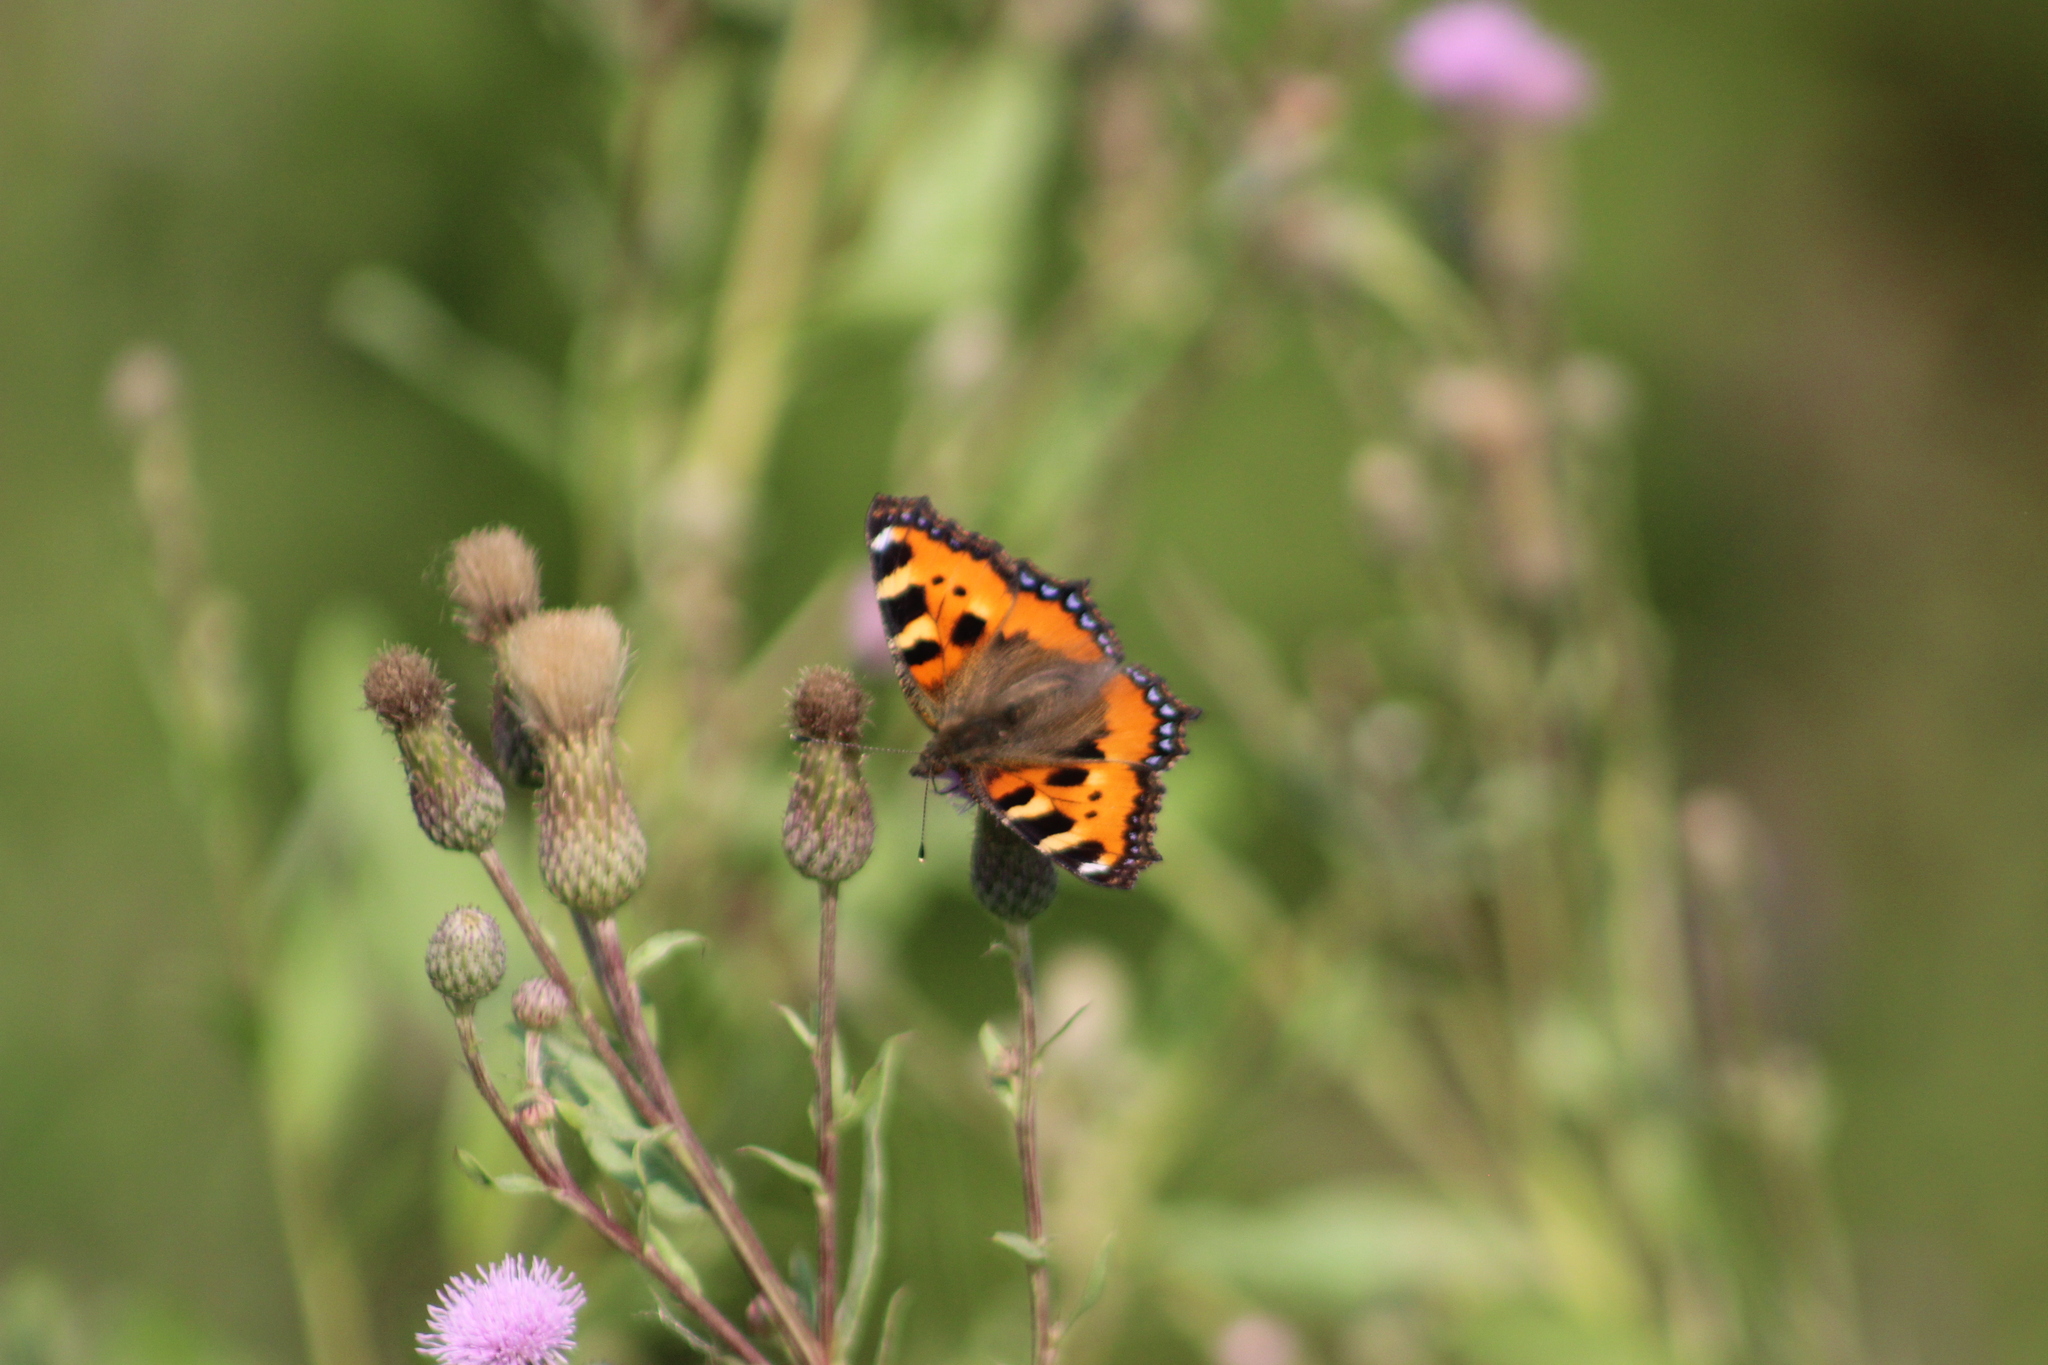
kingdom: Animalia
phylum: Arthropoda
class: Insecta
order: Lepidoptera
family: Nymphalidae
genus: Aglais
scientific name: Aglais urticae
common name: Small tortoiseshell
